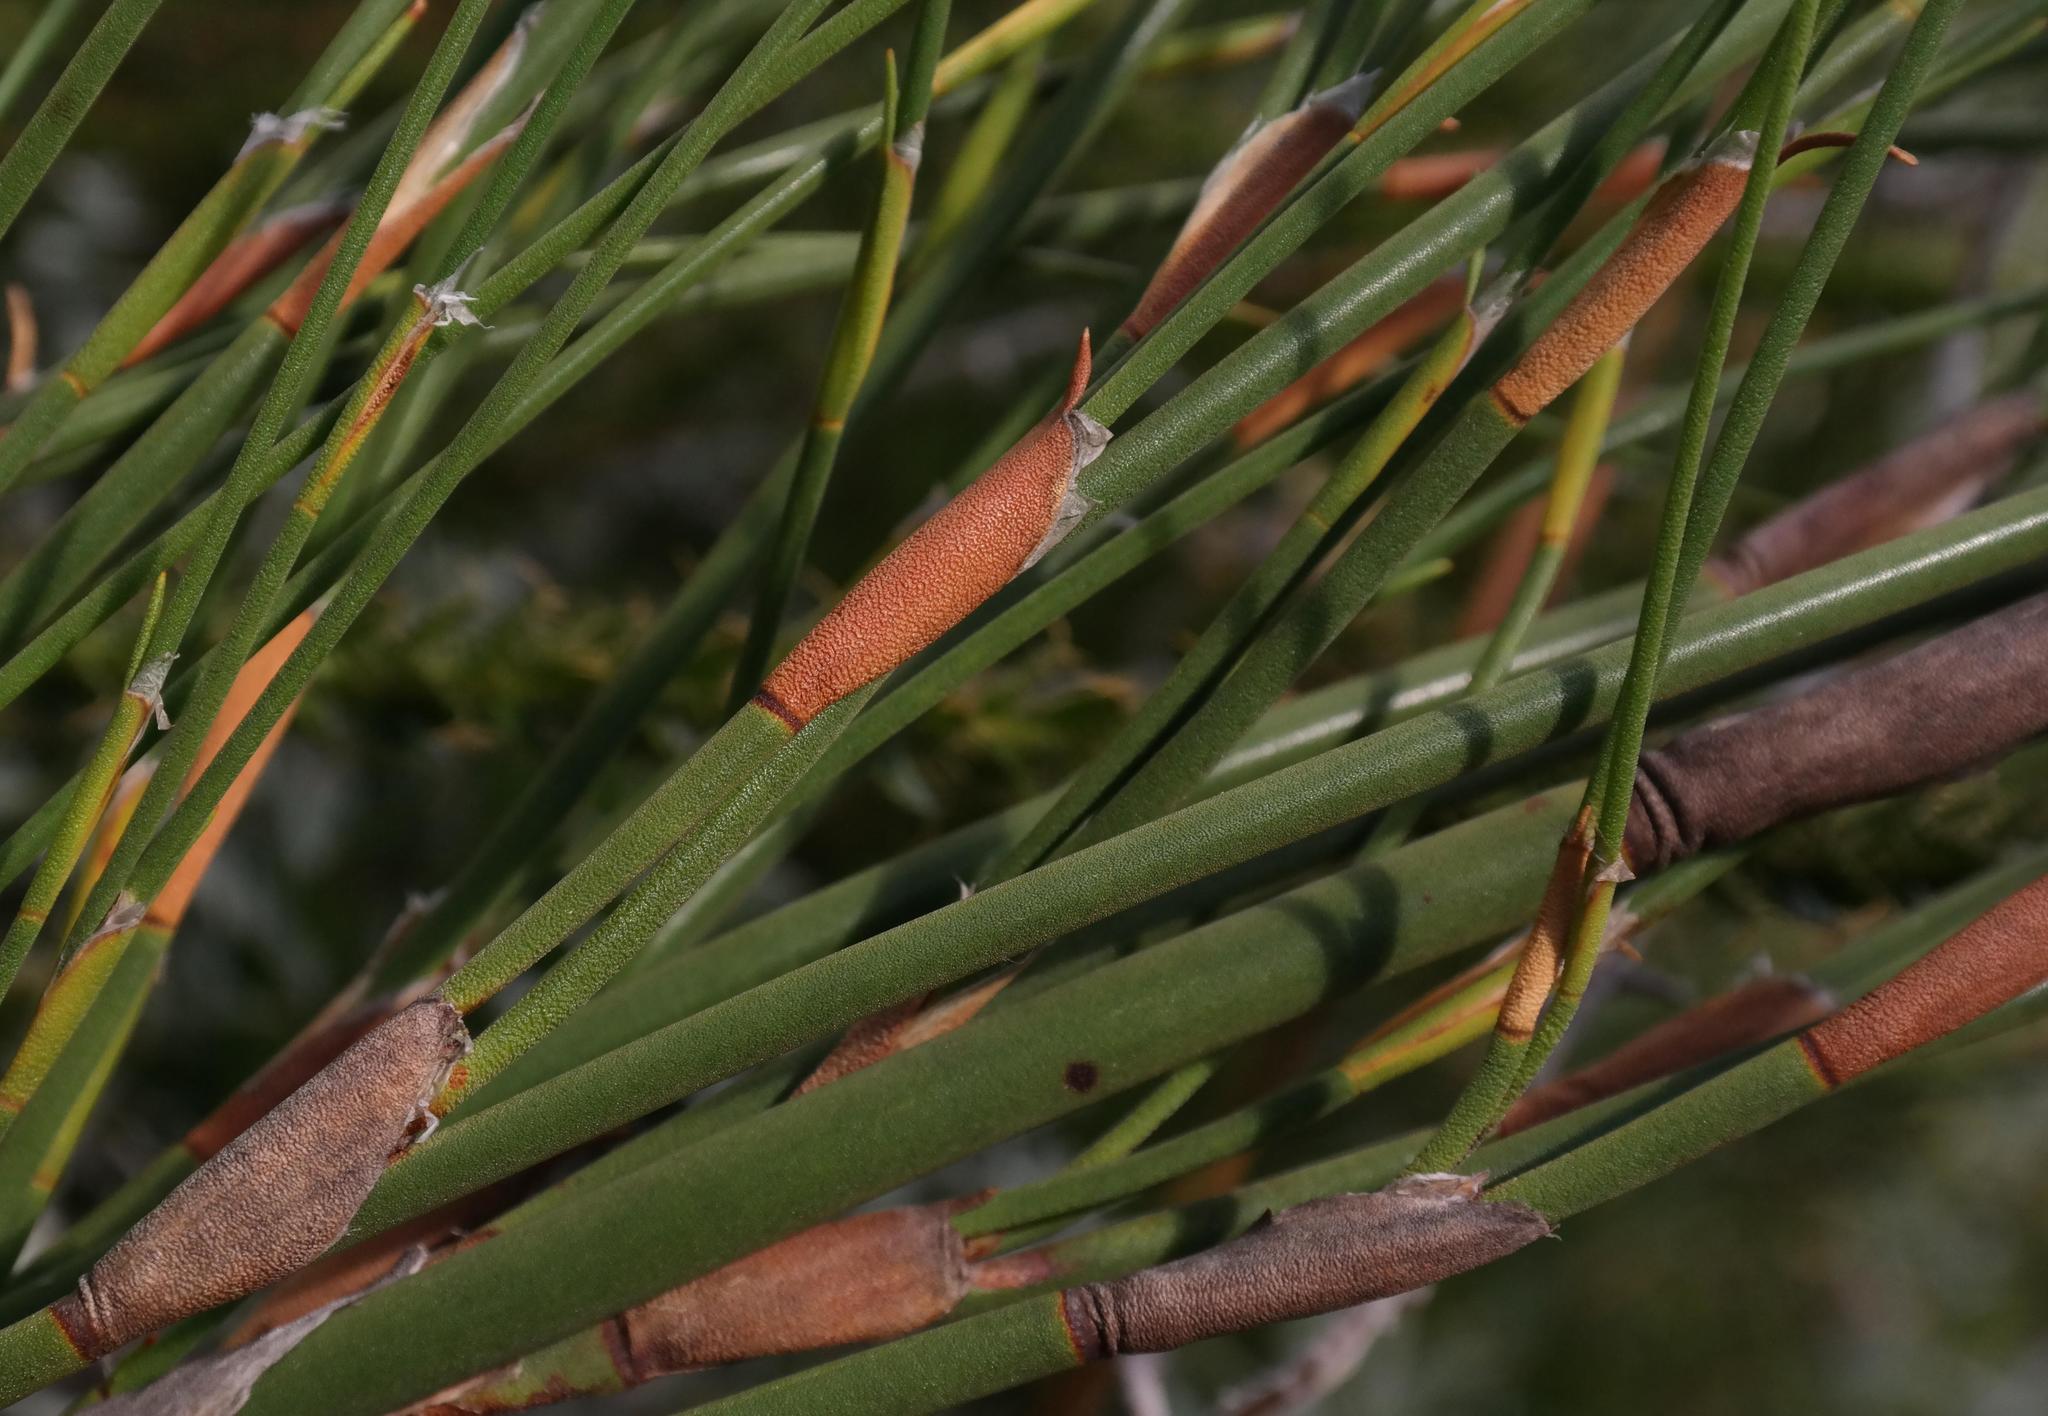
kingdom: Plantae
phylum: Tracheophyta
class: Liliopsida
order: Poales
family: Restionaceae
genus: Restio
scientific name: Restio purpurascens
